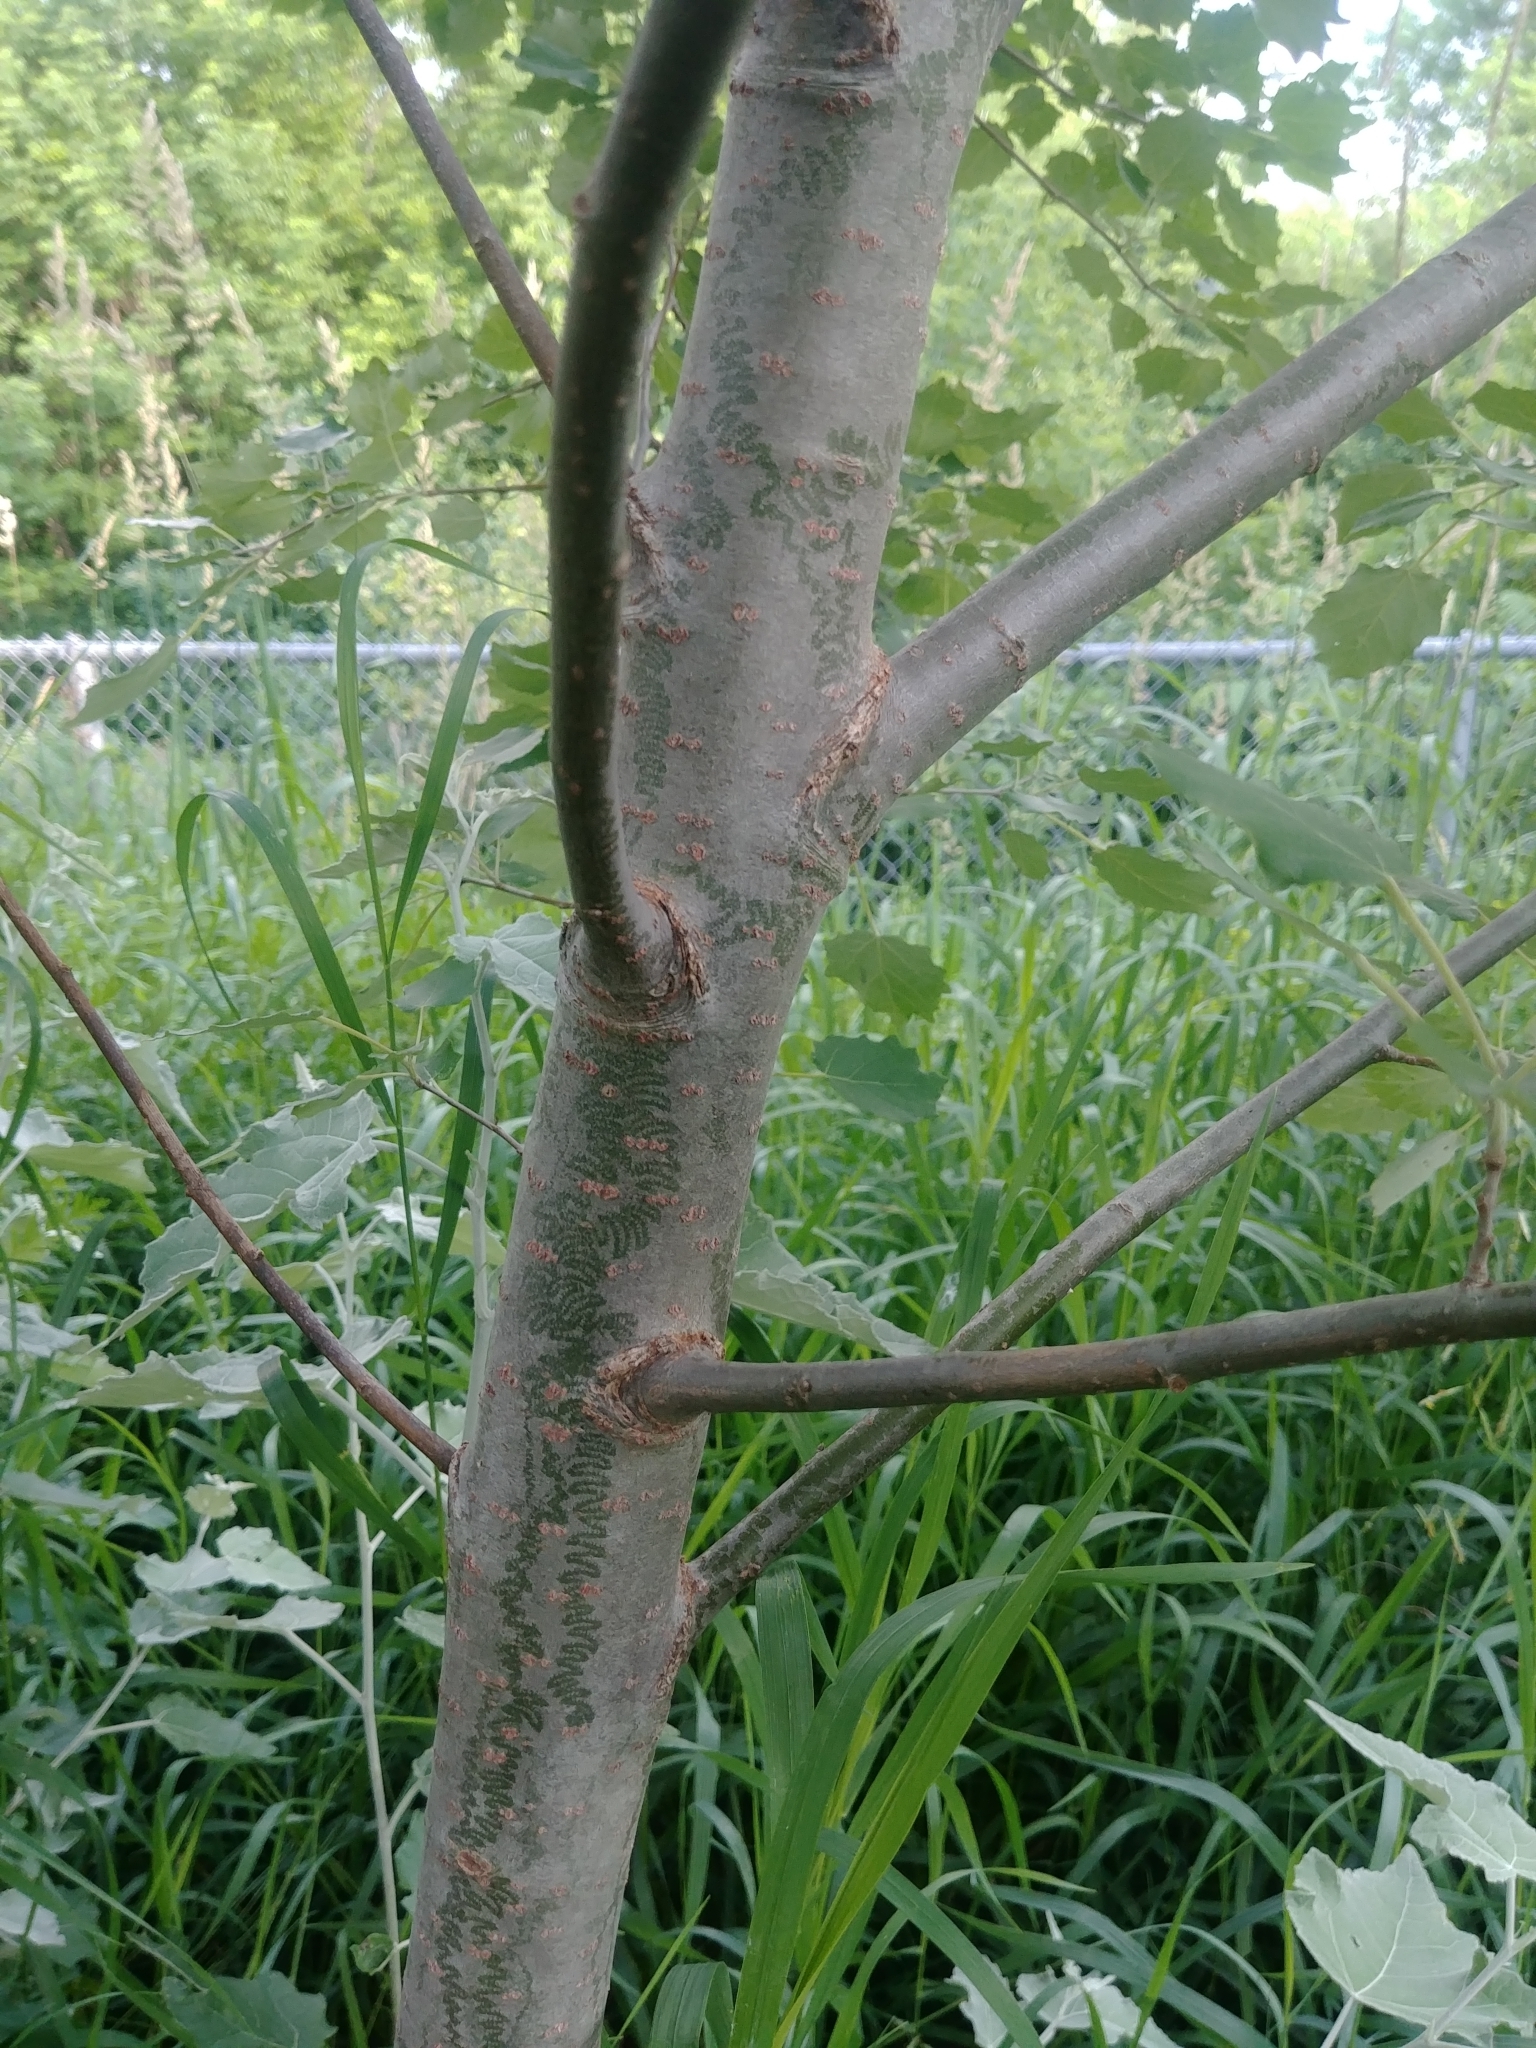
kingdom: Plantae
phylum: Tracheophyta
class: Magnoliopsida
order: Malpighiales
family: Salicaceae
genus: Populus
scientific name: Populus grandidentata
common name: Bigtooth aspen
